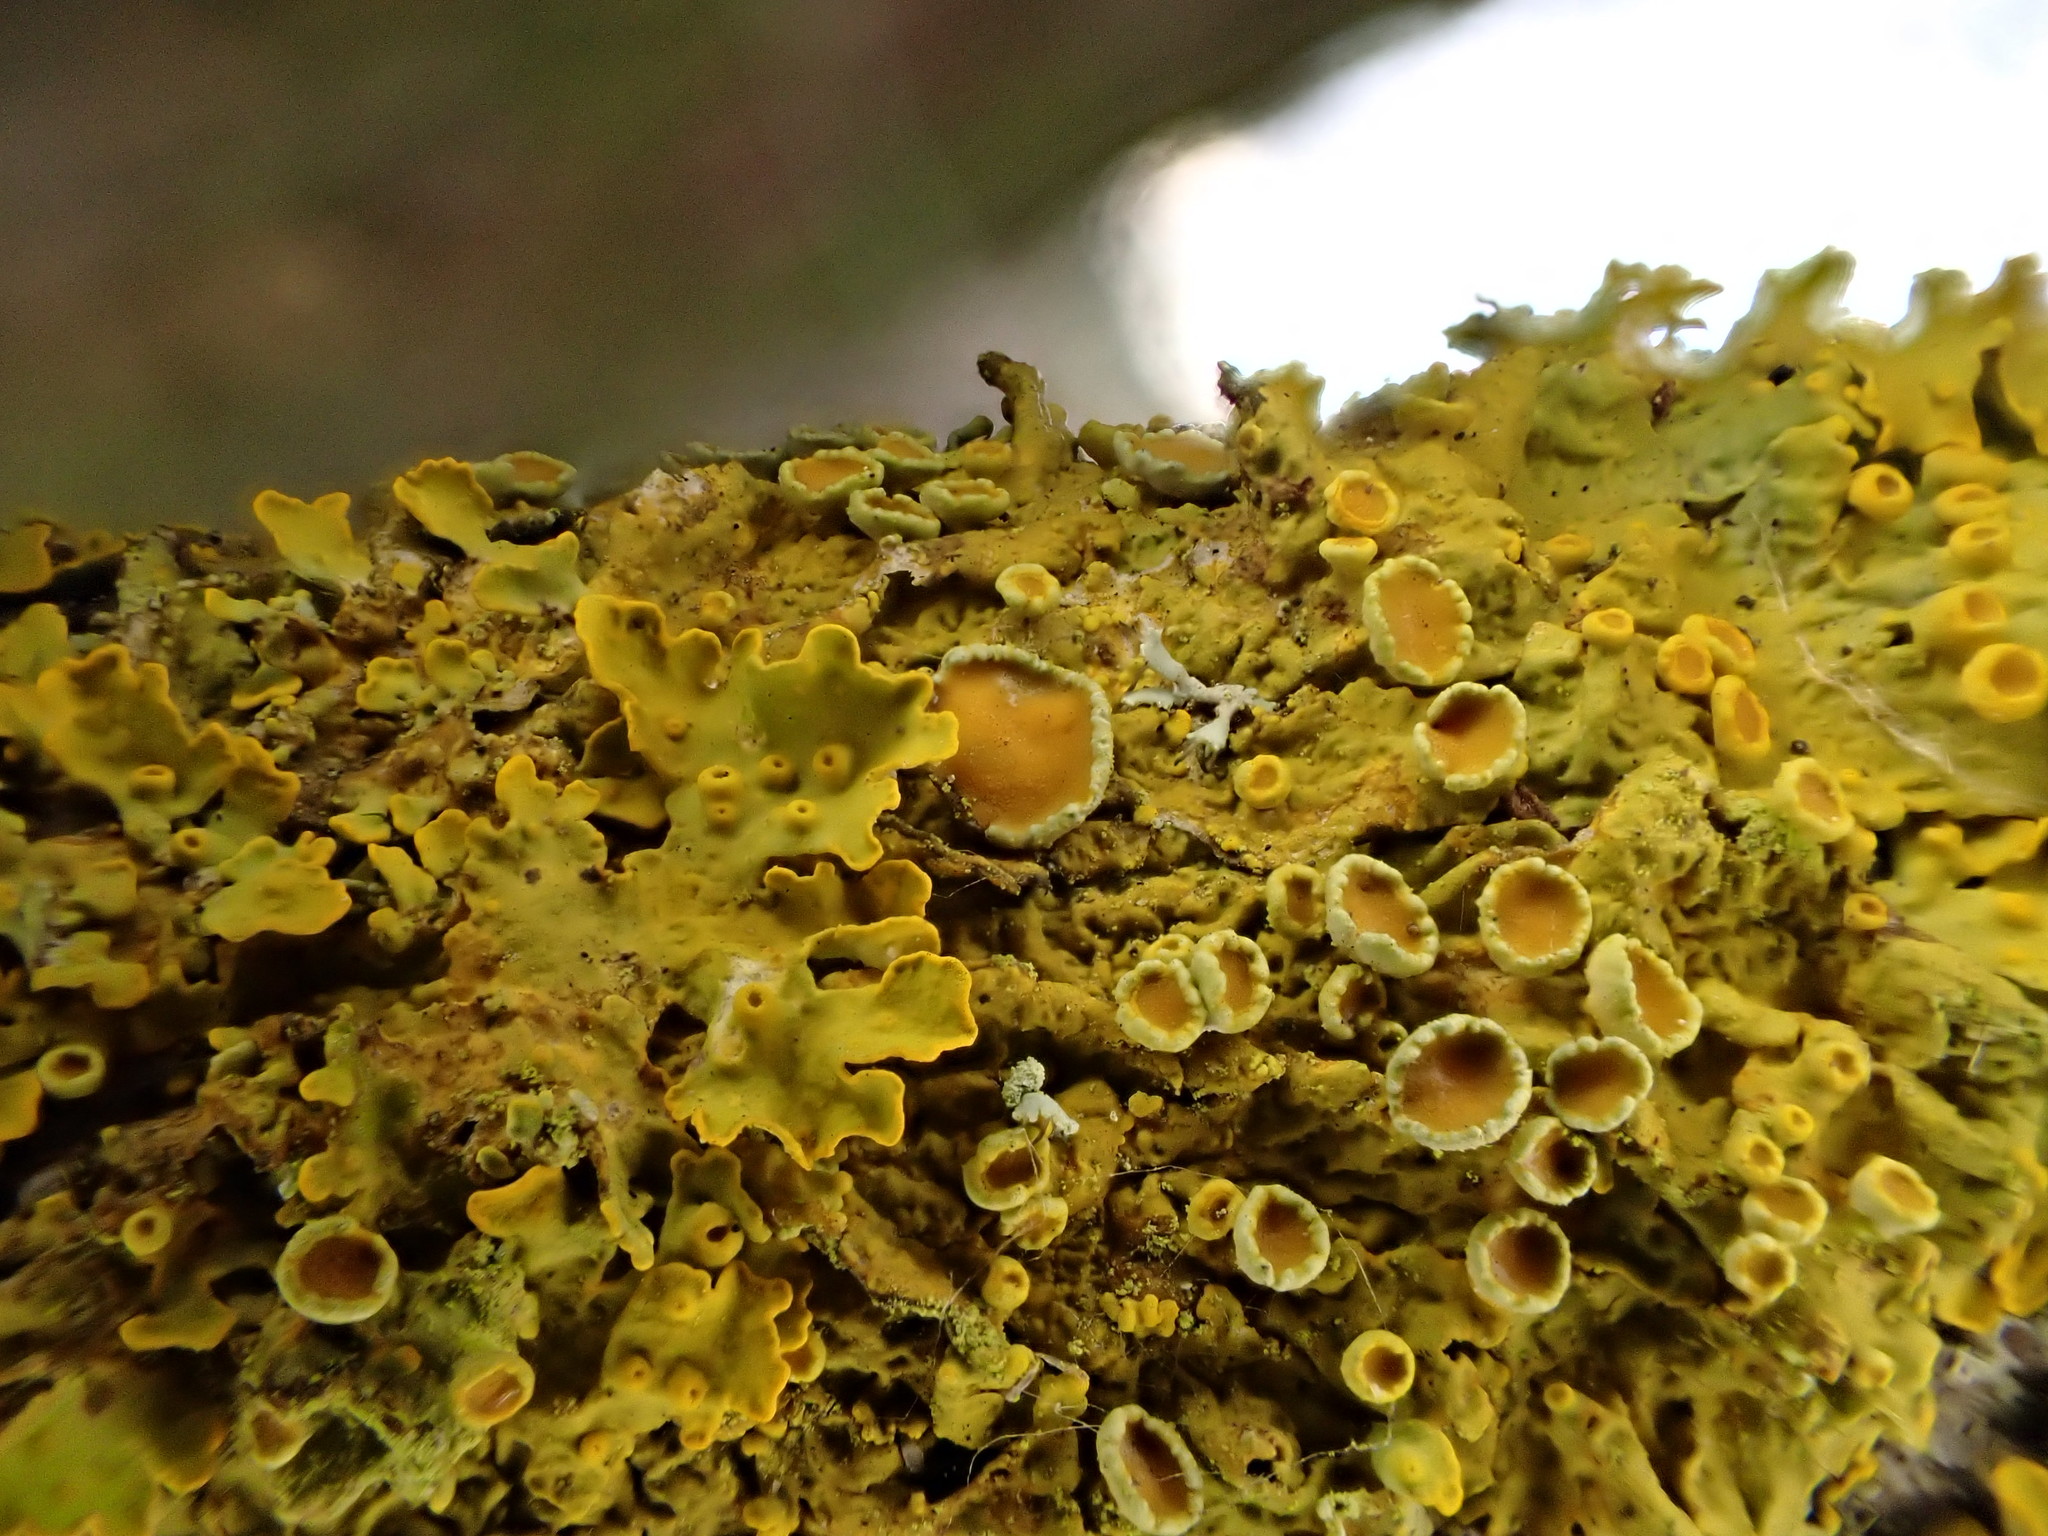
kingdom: Fungi
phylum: Ascomycota
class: Lecanoromycetes
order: Teloschistales
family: Teloschistaceae
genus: Xanthoria
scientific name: Xanthoria parietina
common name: Common orange lichen
